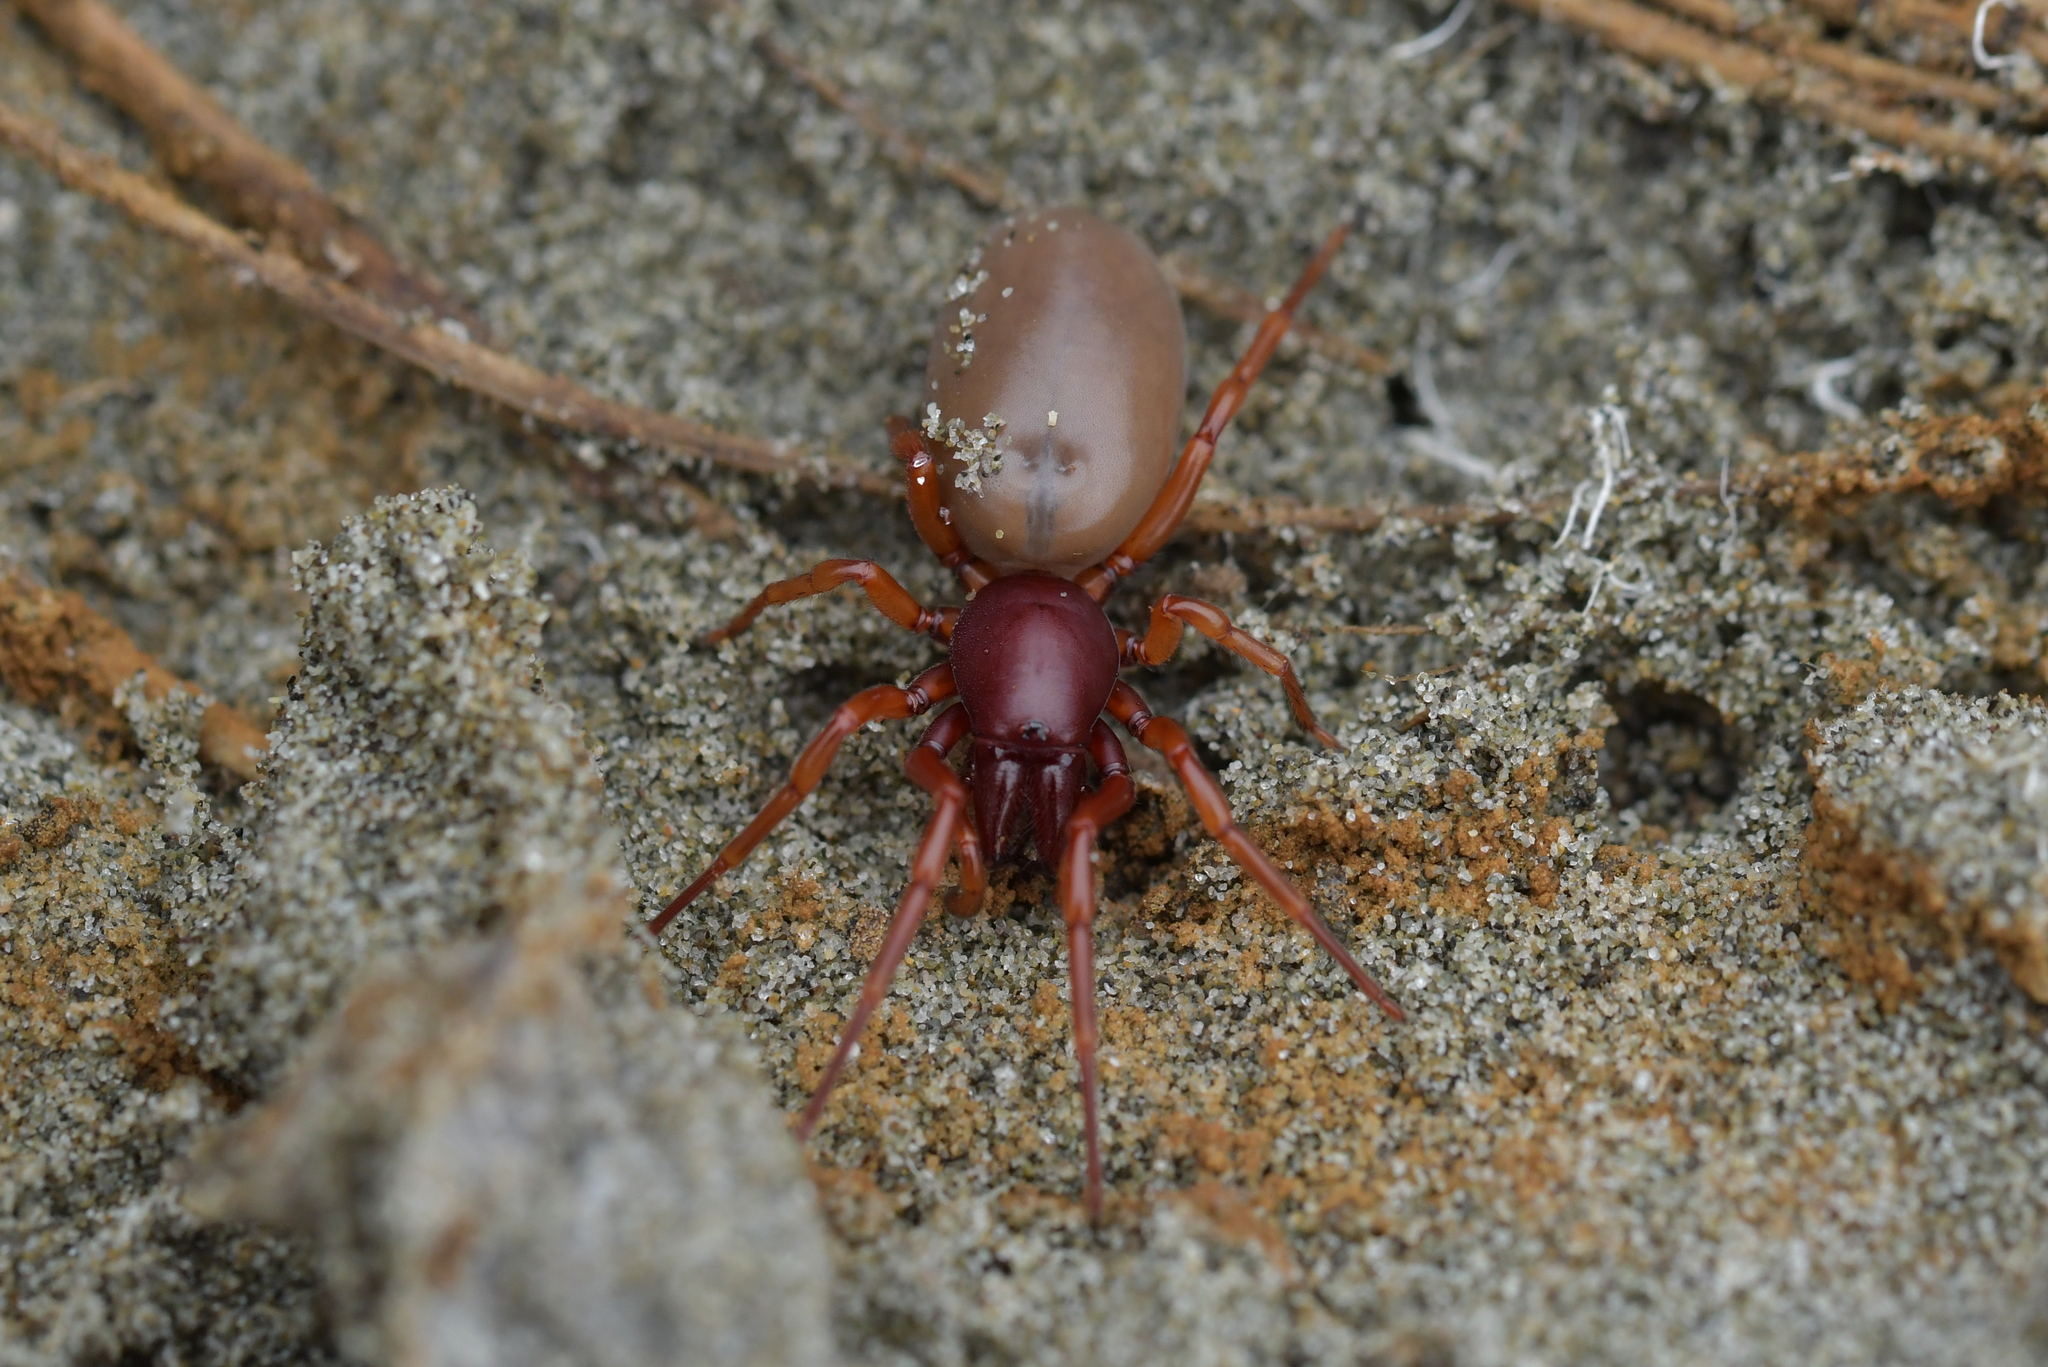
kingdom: Animalia
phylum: Arthropoda
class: Arachnida
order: Araneae
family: Dysderidae
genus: Dysdera
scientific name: Dysdera crocata
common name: Woodlouse spider
